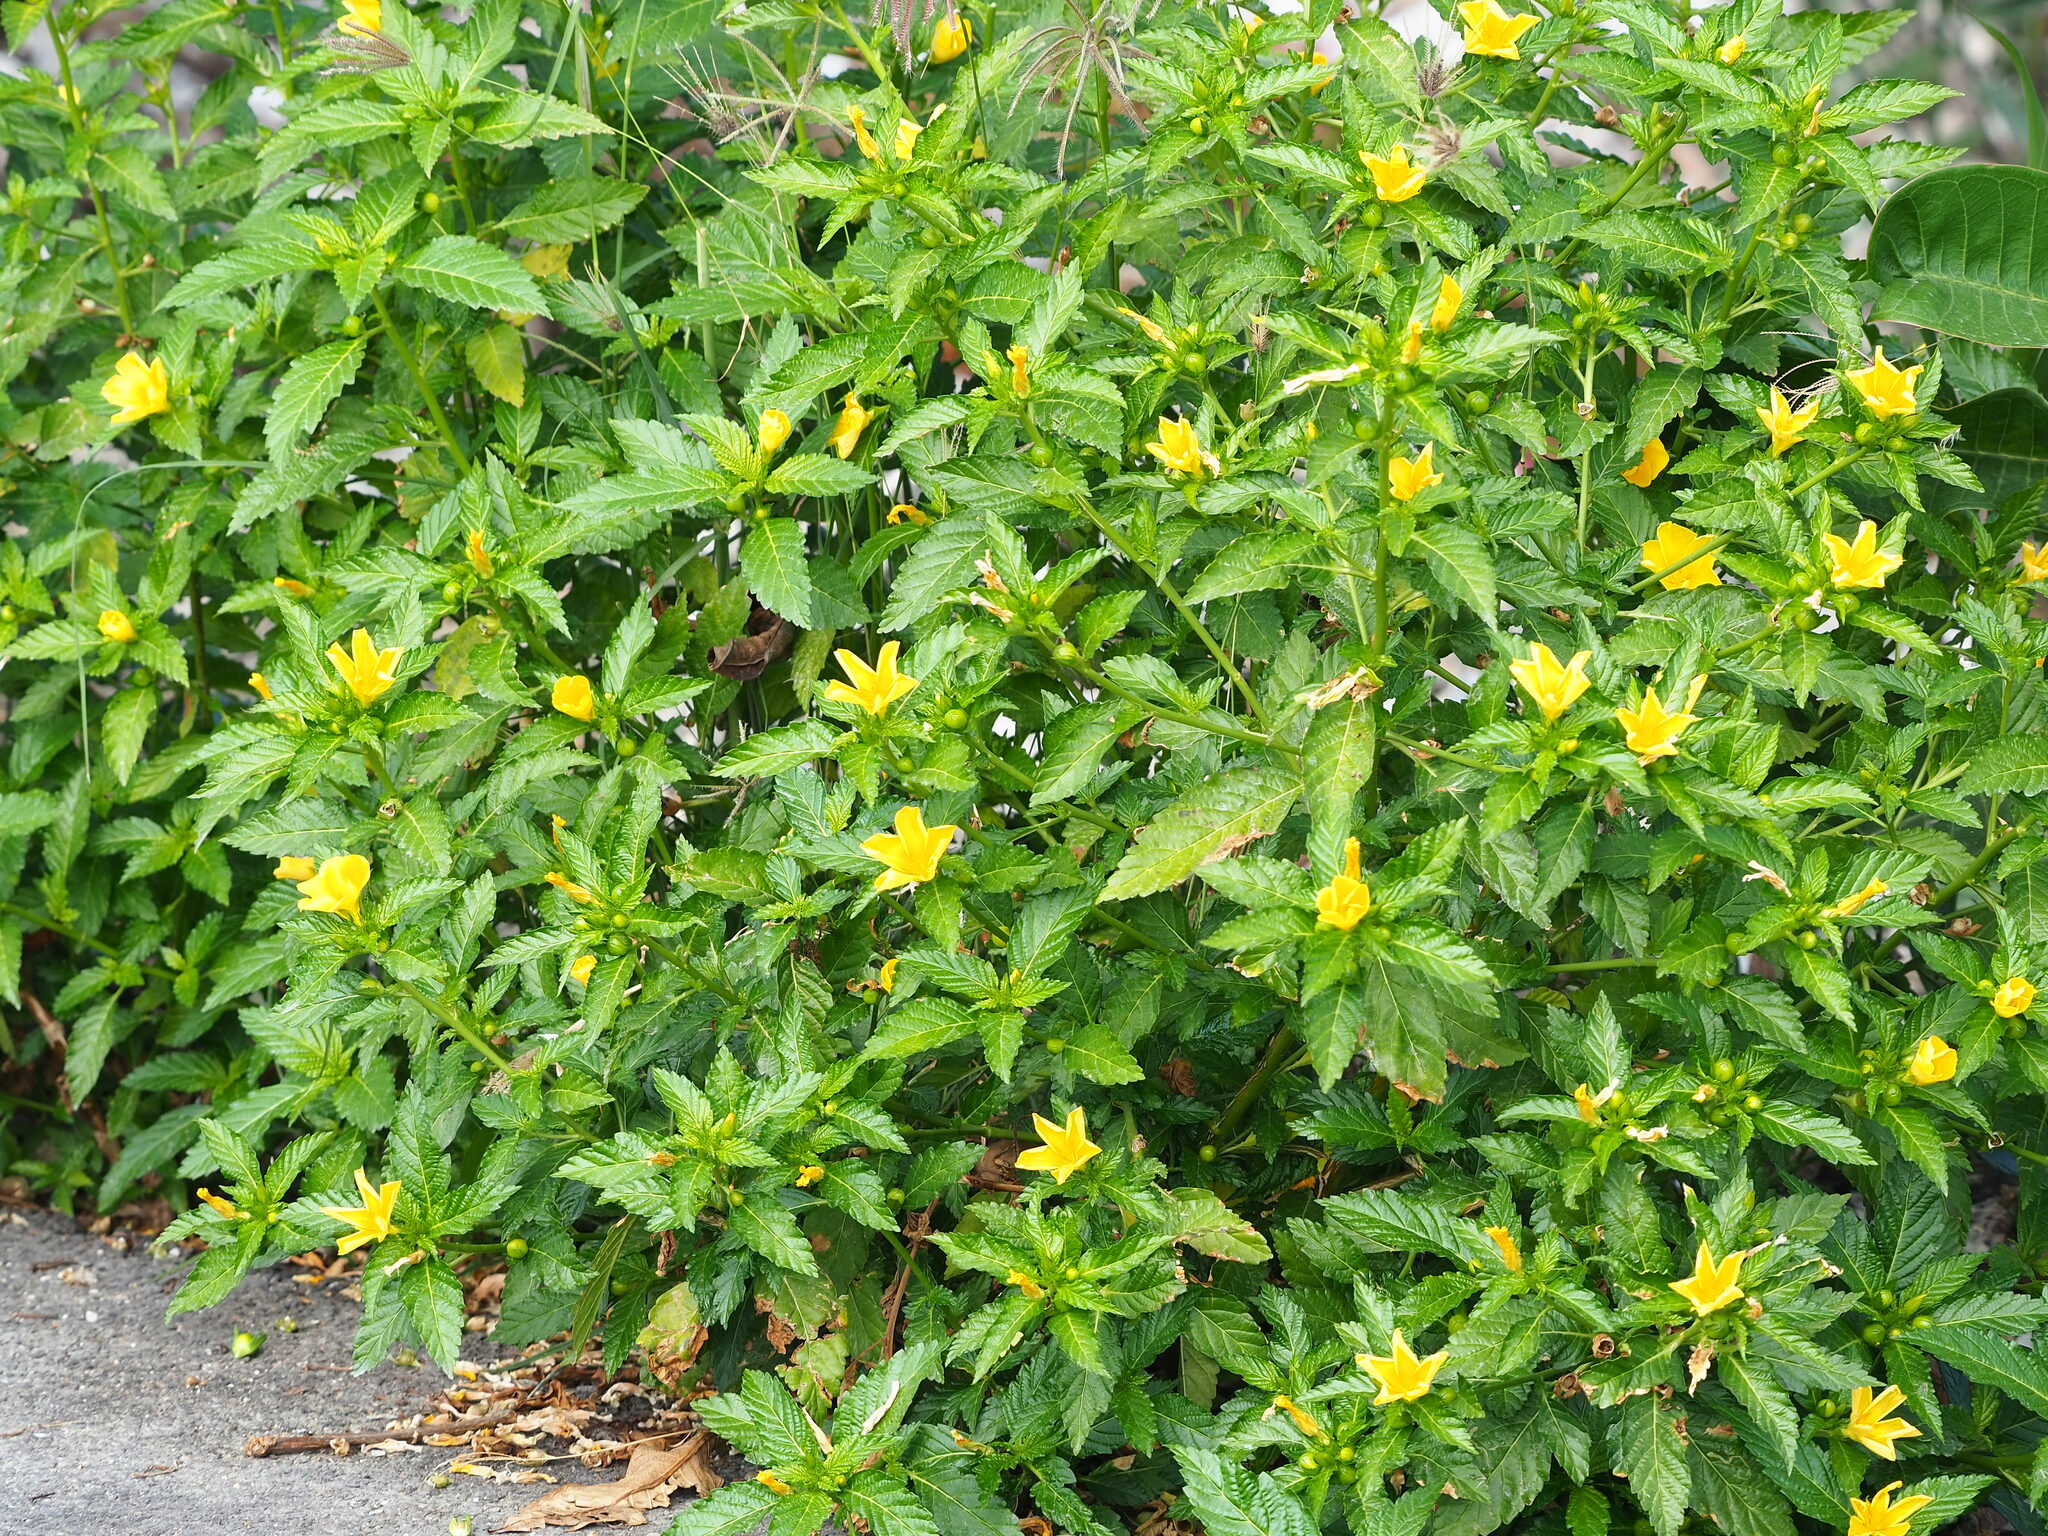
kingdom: Plantae
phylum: Tracheophyta
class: Magnoliopsida
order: Malpighiales
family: Turneraceae
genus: Turnera
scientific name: Turnera ulmifolia
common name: Ramgoat dashalong
